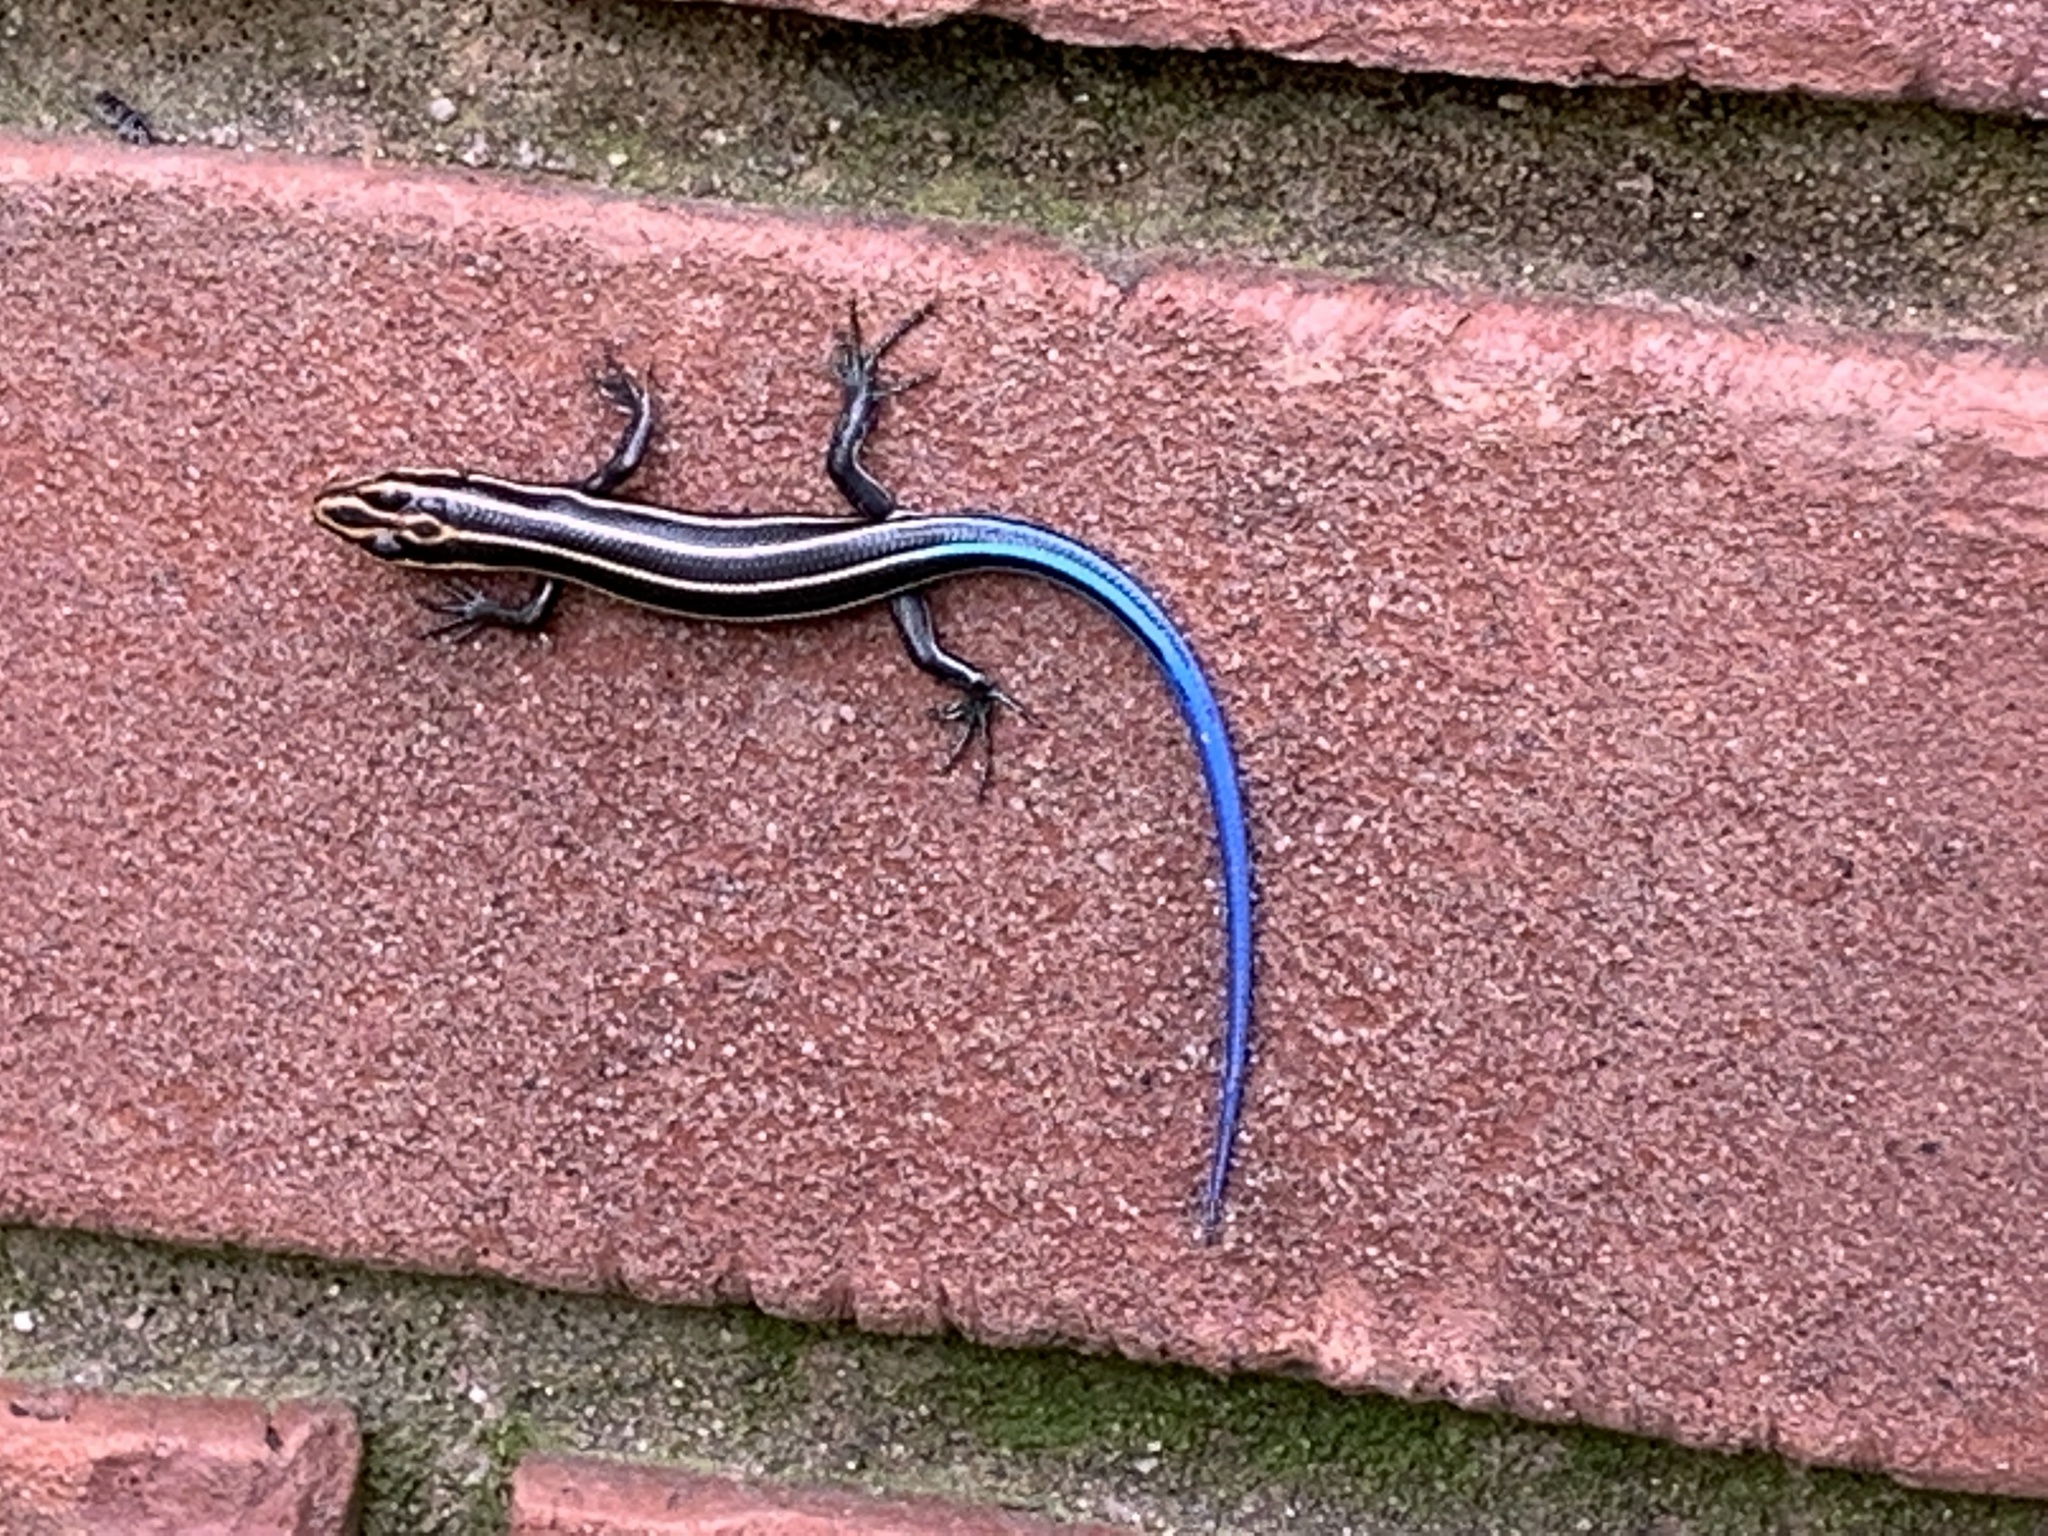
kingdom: Animalia
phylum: Chordata
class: Squamata
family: Scincidae
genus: Plestiodon
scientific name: Plestiodon fasciatus
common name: Five-lined skink
